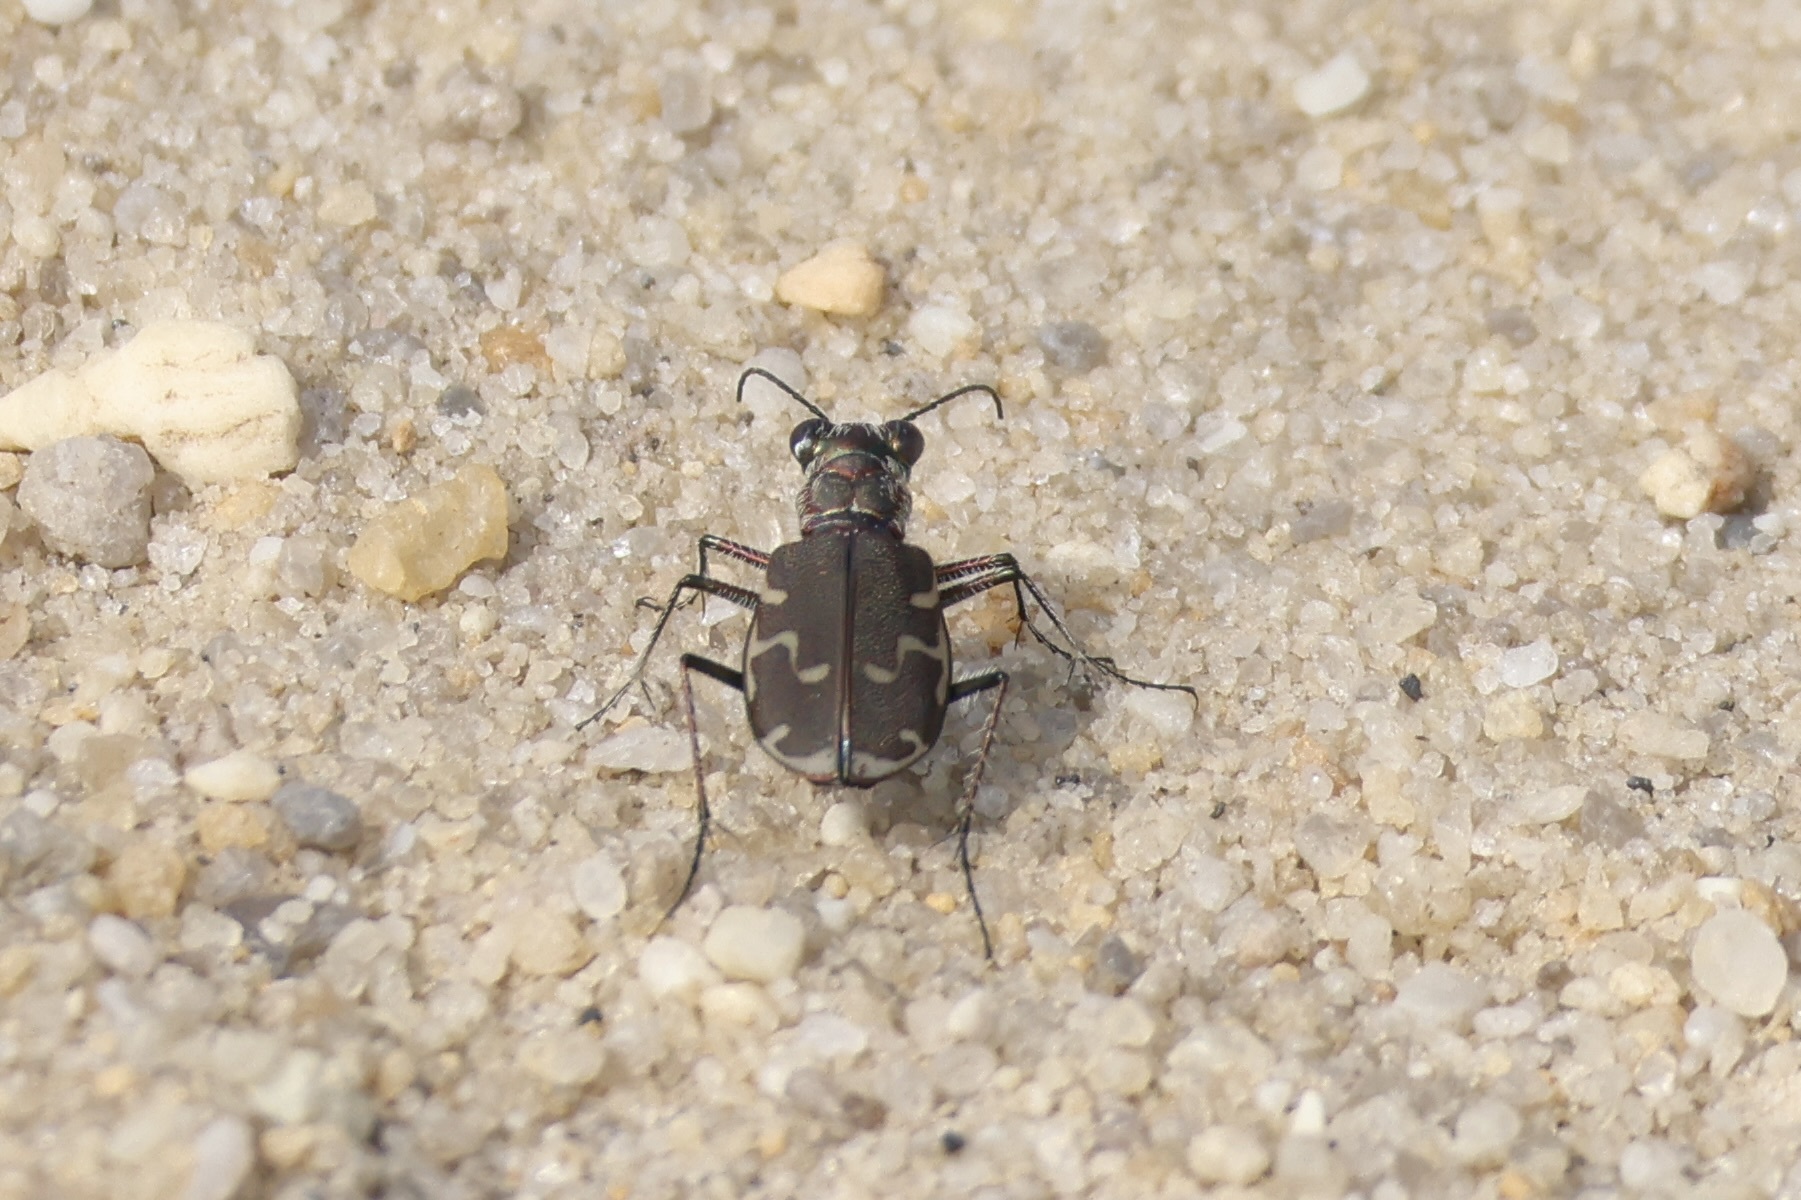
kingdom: Animalia
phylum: Arthropoda
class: Insecta
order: Coleoptera
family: Carabidae
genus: Cicindela
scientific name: Cicindela repanda
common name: Bronzed tiger beetle
